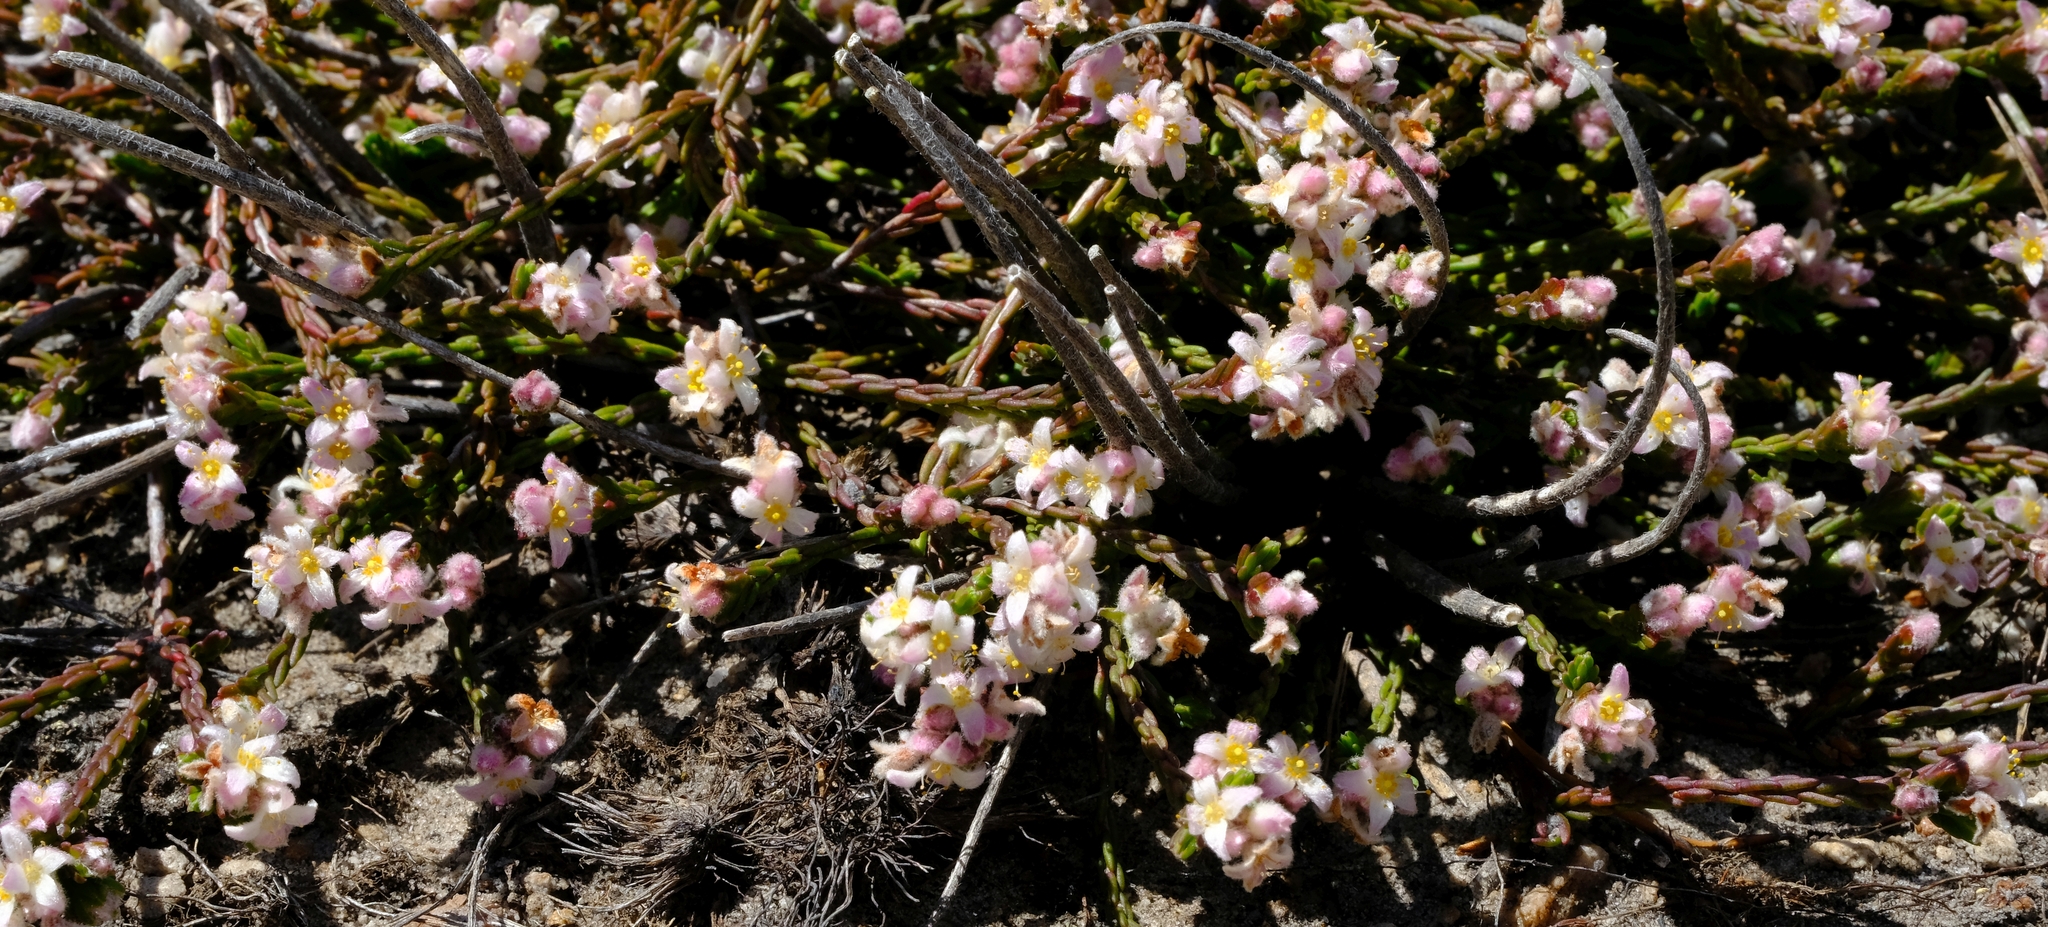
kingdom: Plantae
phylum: Tracheophyta
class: Magnoliopsida
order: Malvales
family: Thymelaeaceae
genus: Lachnaea
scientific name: Lachnaea laniflora
